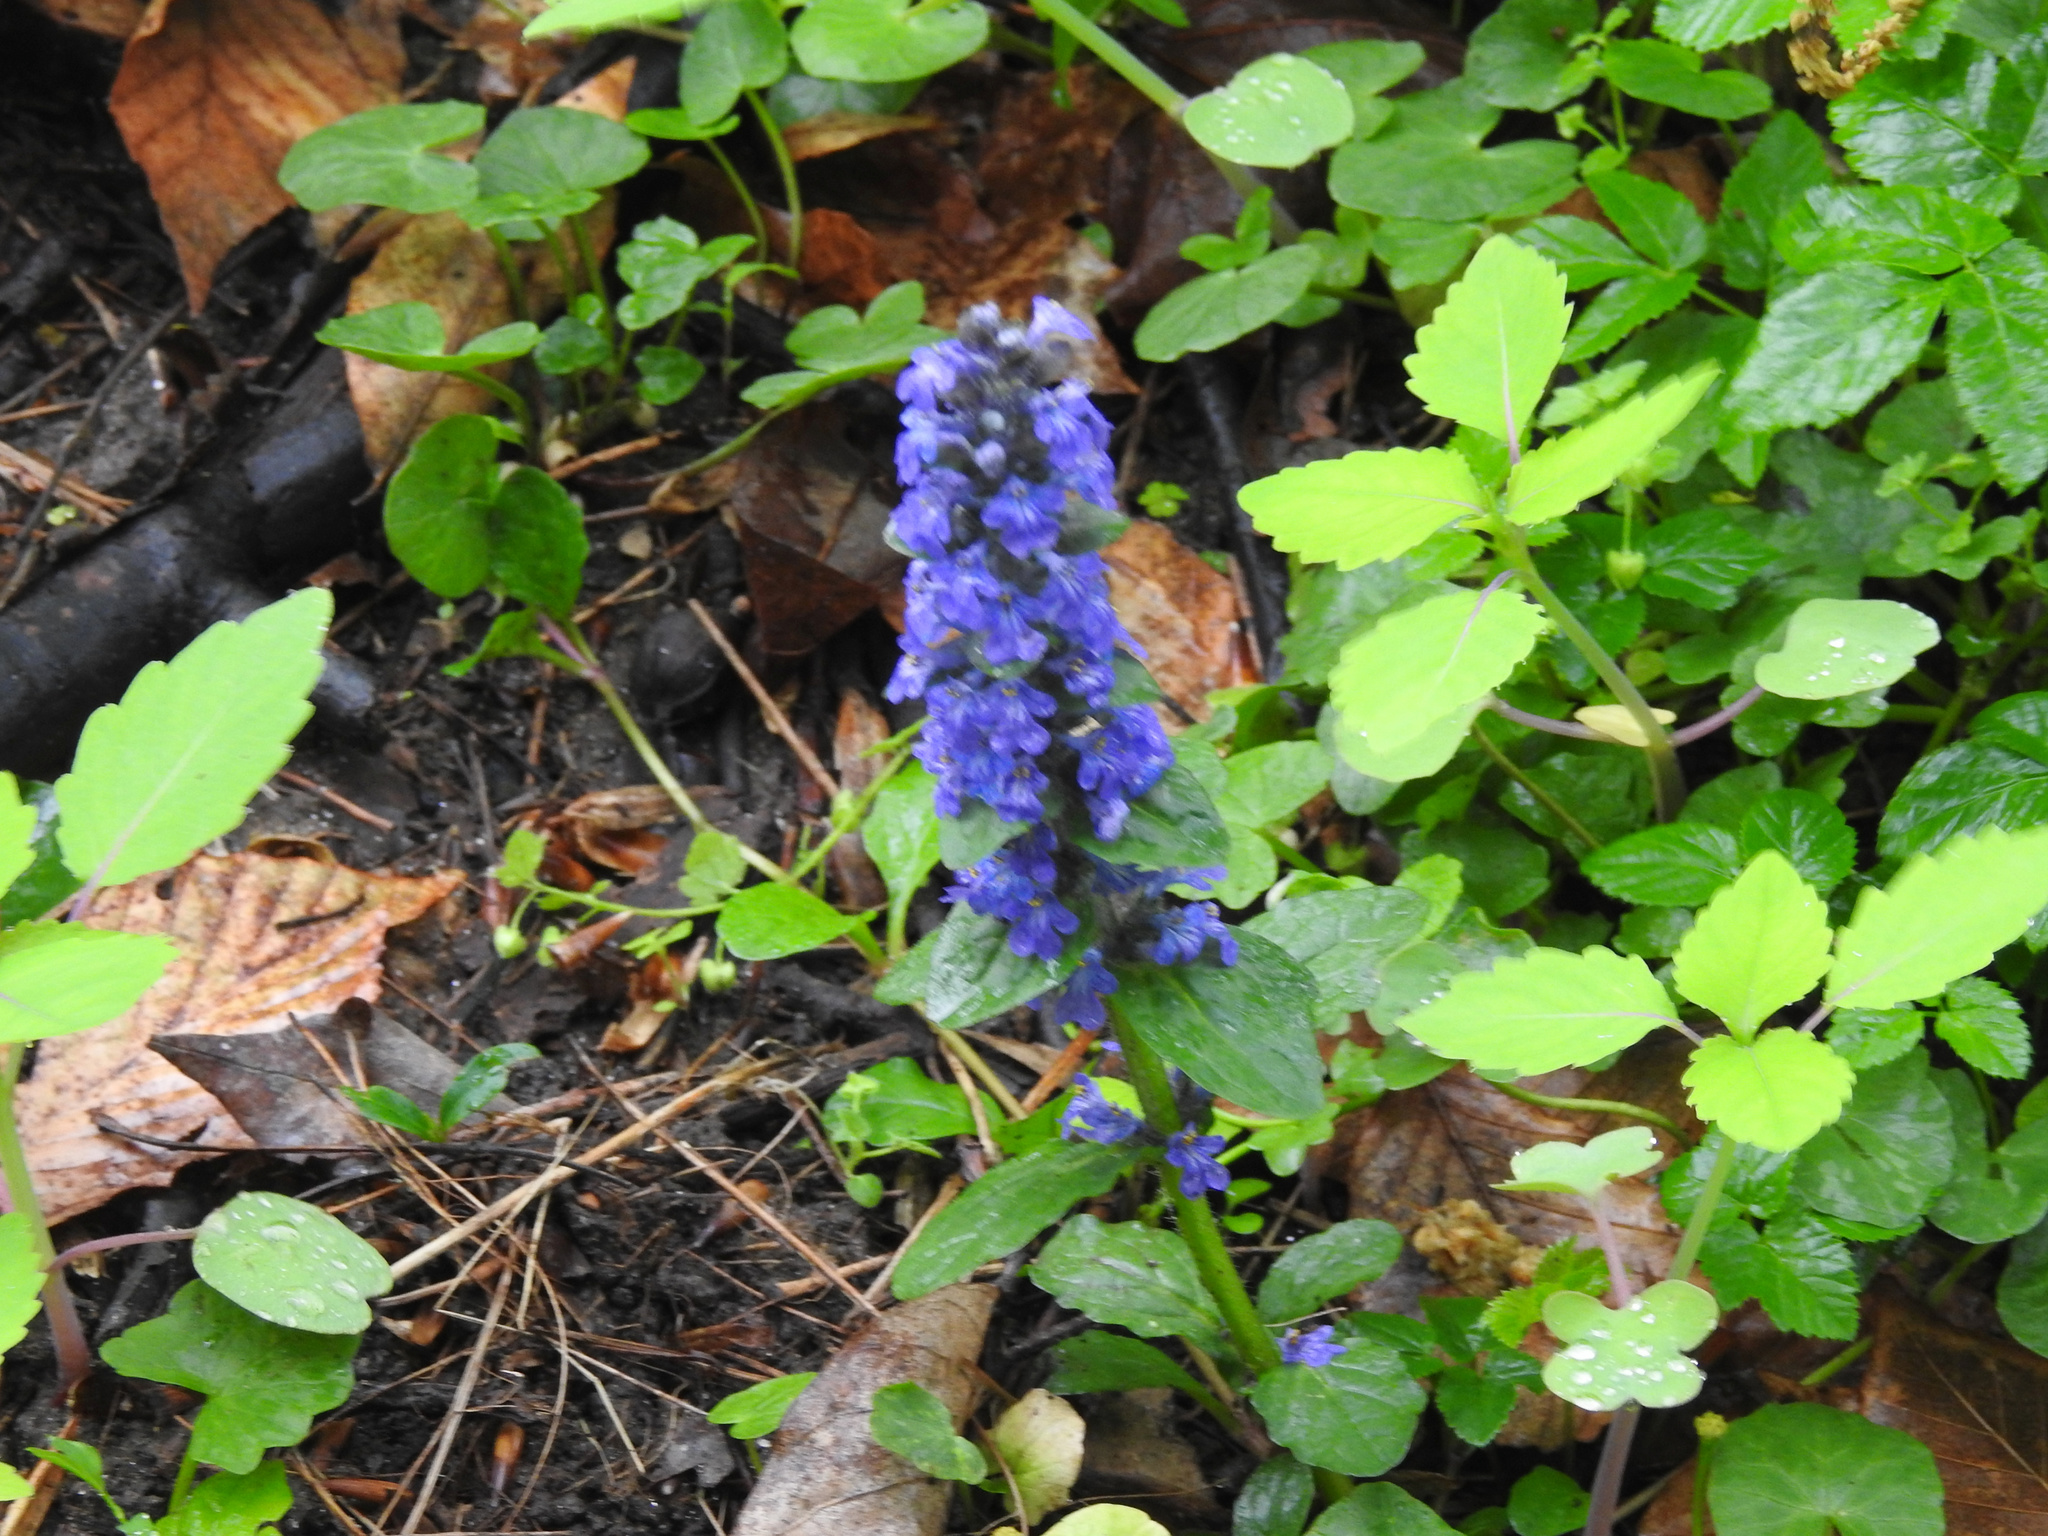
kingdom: Plantae
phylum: Tracheophyta
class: Magnoliopsida
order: Lamiales
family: Lamiaceae
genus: Ajuga
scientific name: Ajuga reptans
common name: Bugle
